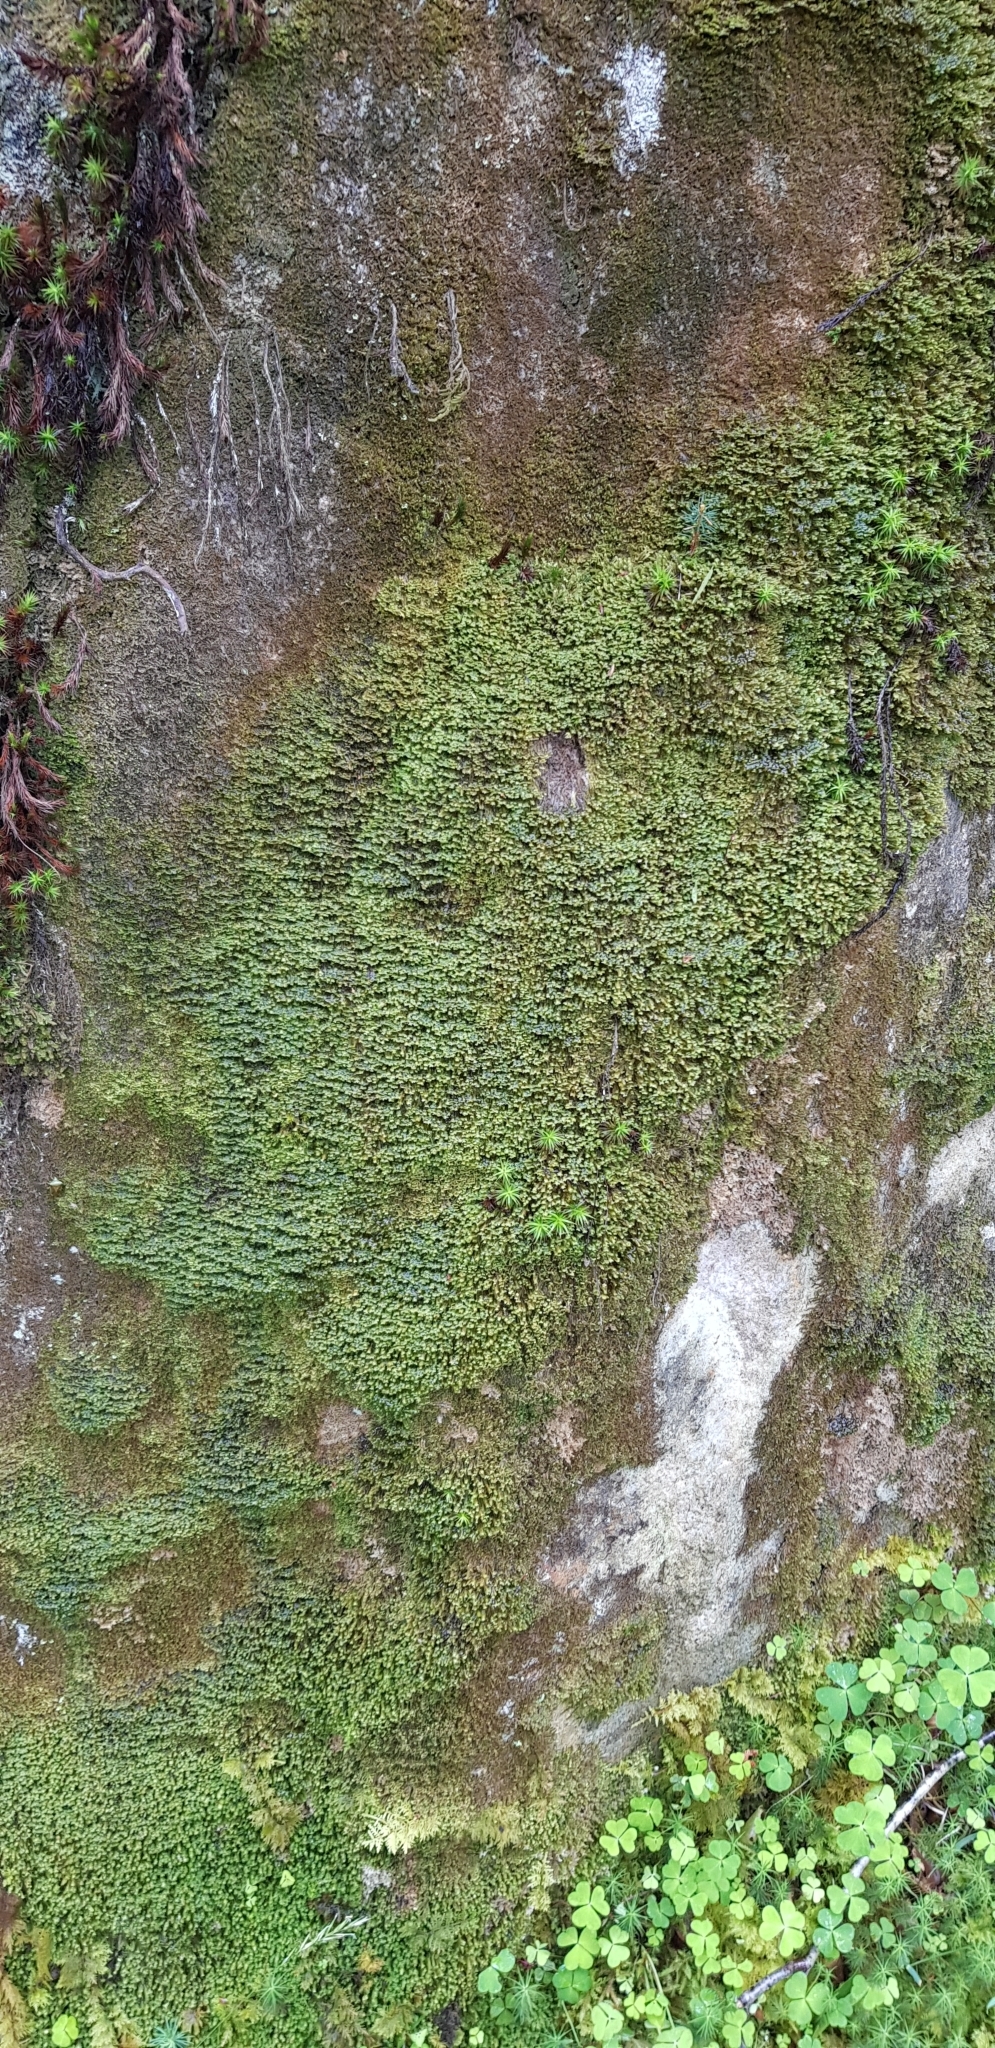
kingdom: Plantae
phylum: Marchantiophyta
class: Jungermanniopsida
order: Jungermanniales
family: Scapaniaceae
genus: Diplophyllum
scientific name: Diplophyllum albicans
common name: White earwort
